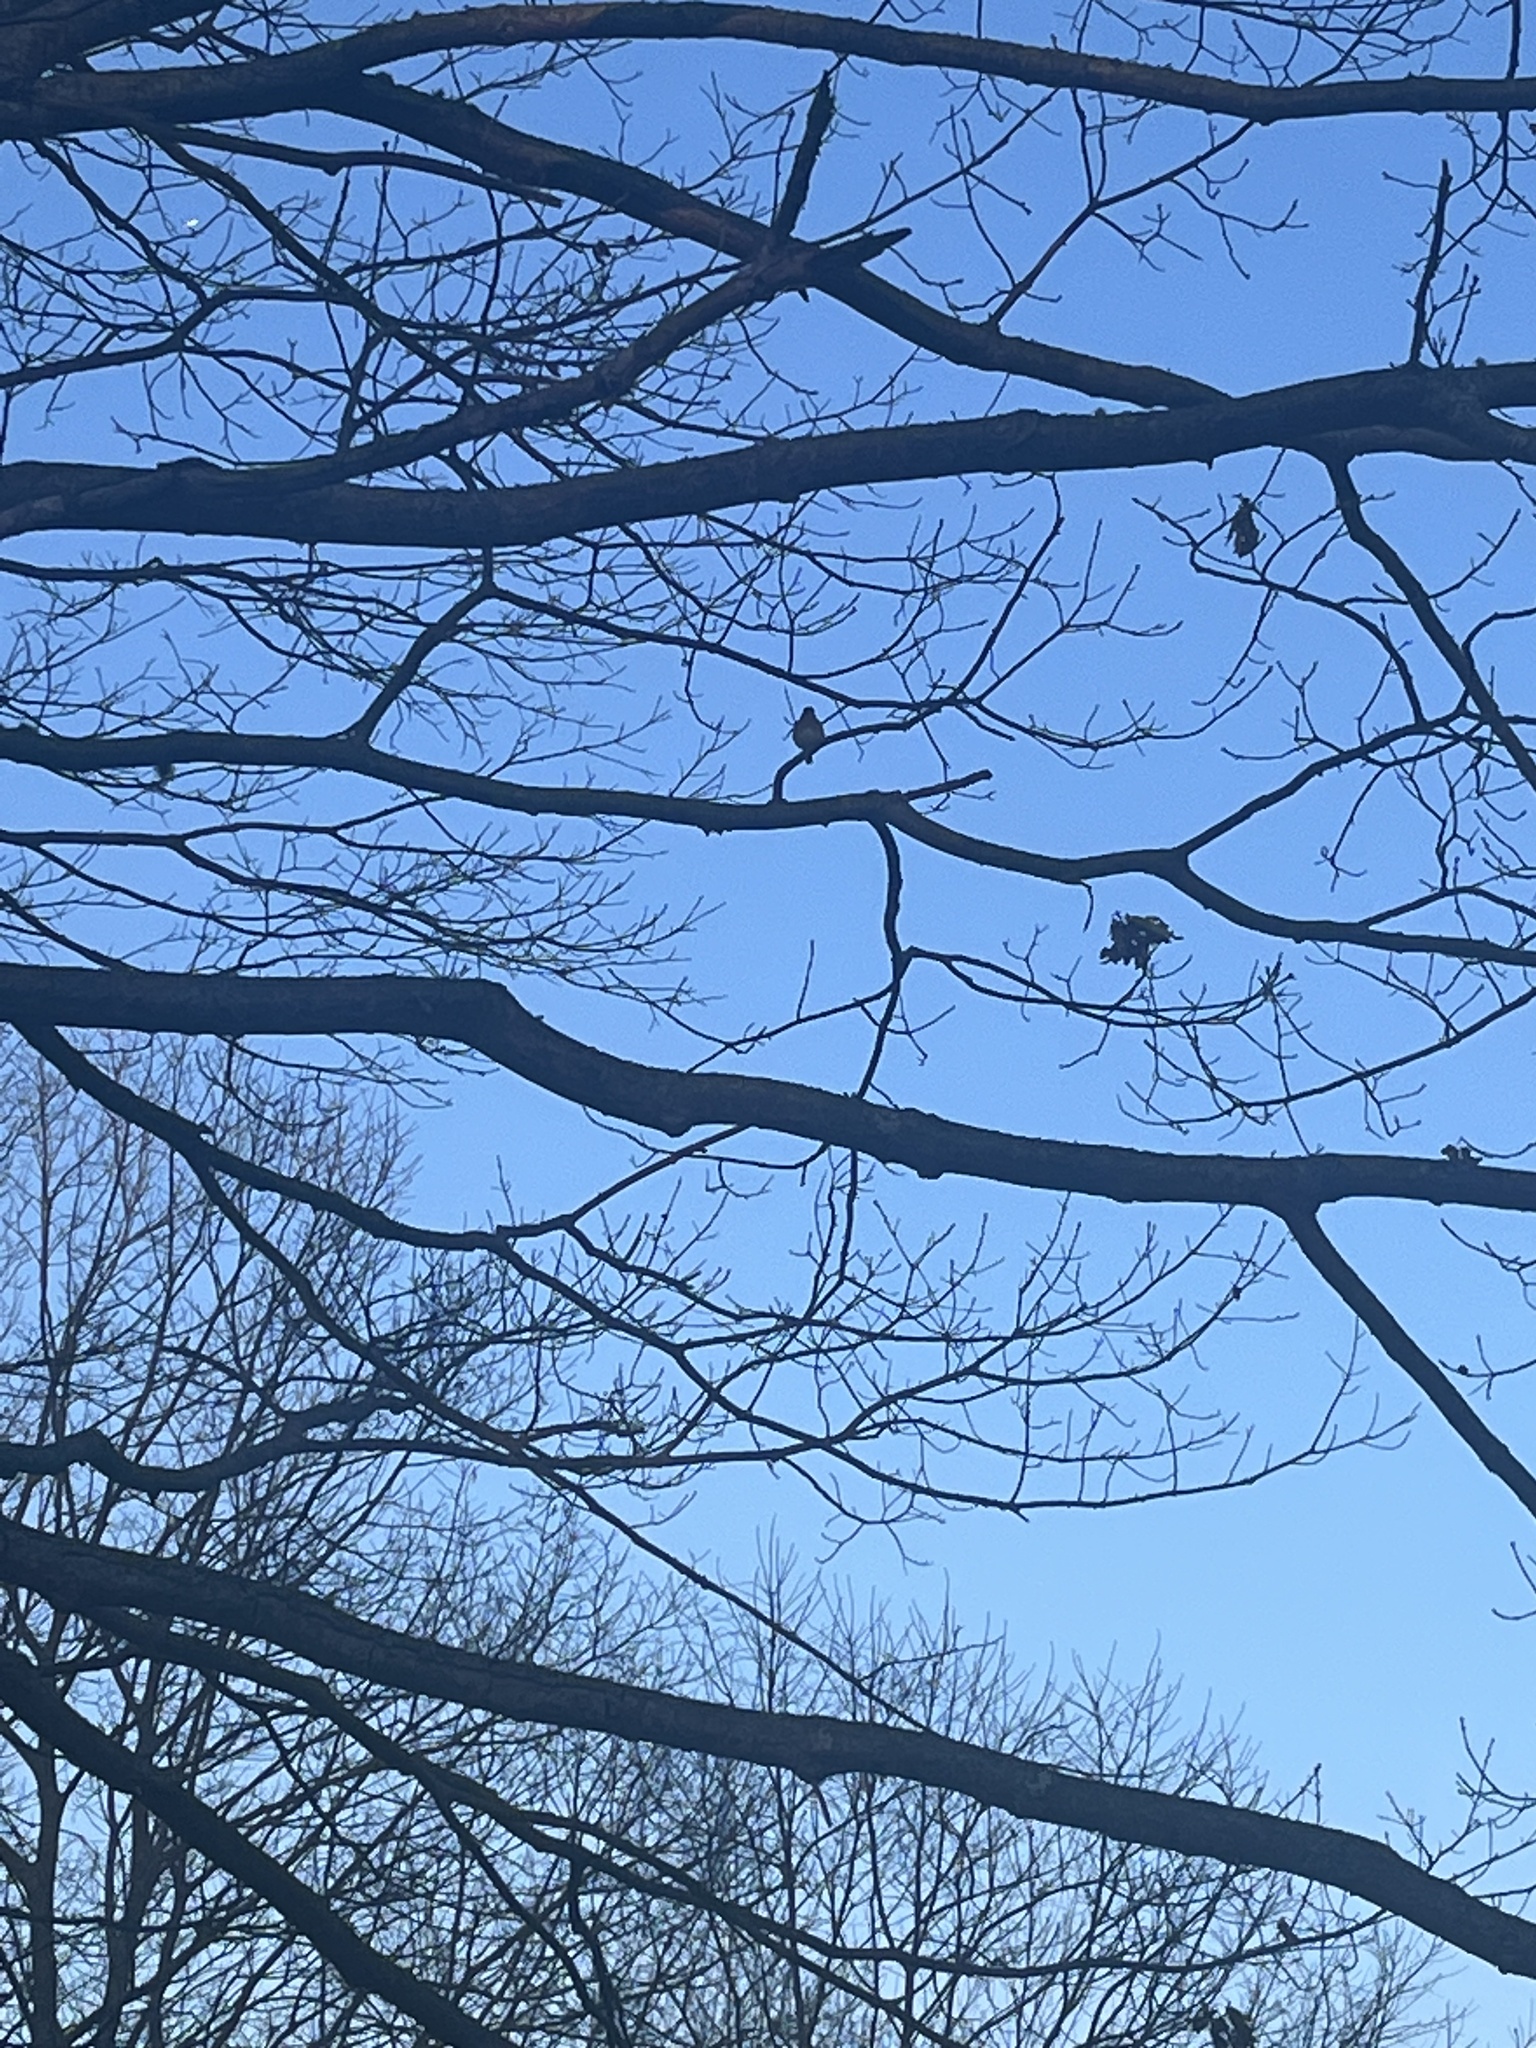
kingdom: Animalia
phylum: Chordata
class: Aves
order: Passeriformes
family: Turdidae
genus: Sialia
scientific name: Sialia sialis
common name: Eastern bluebird
